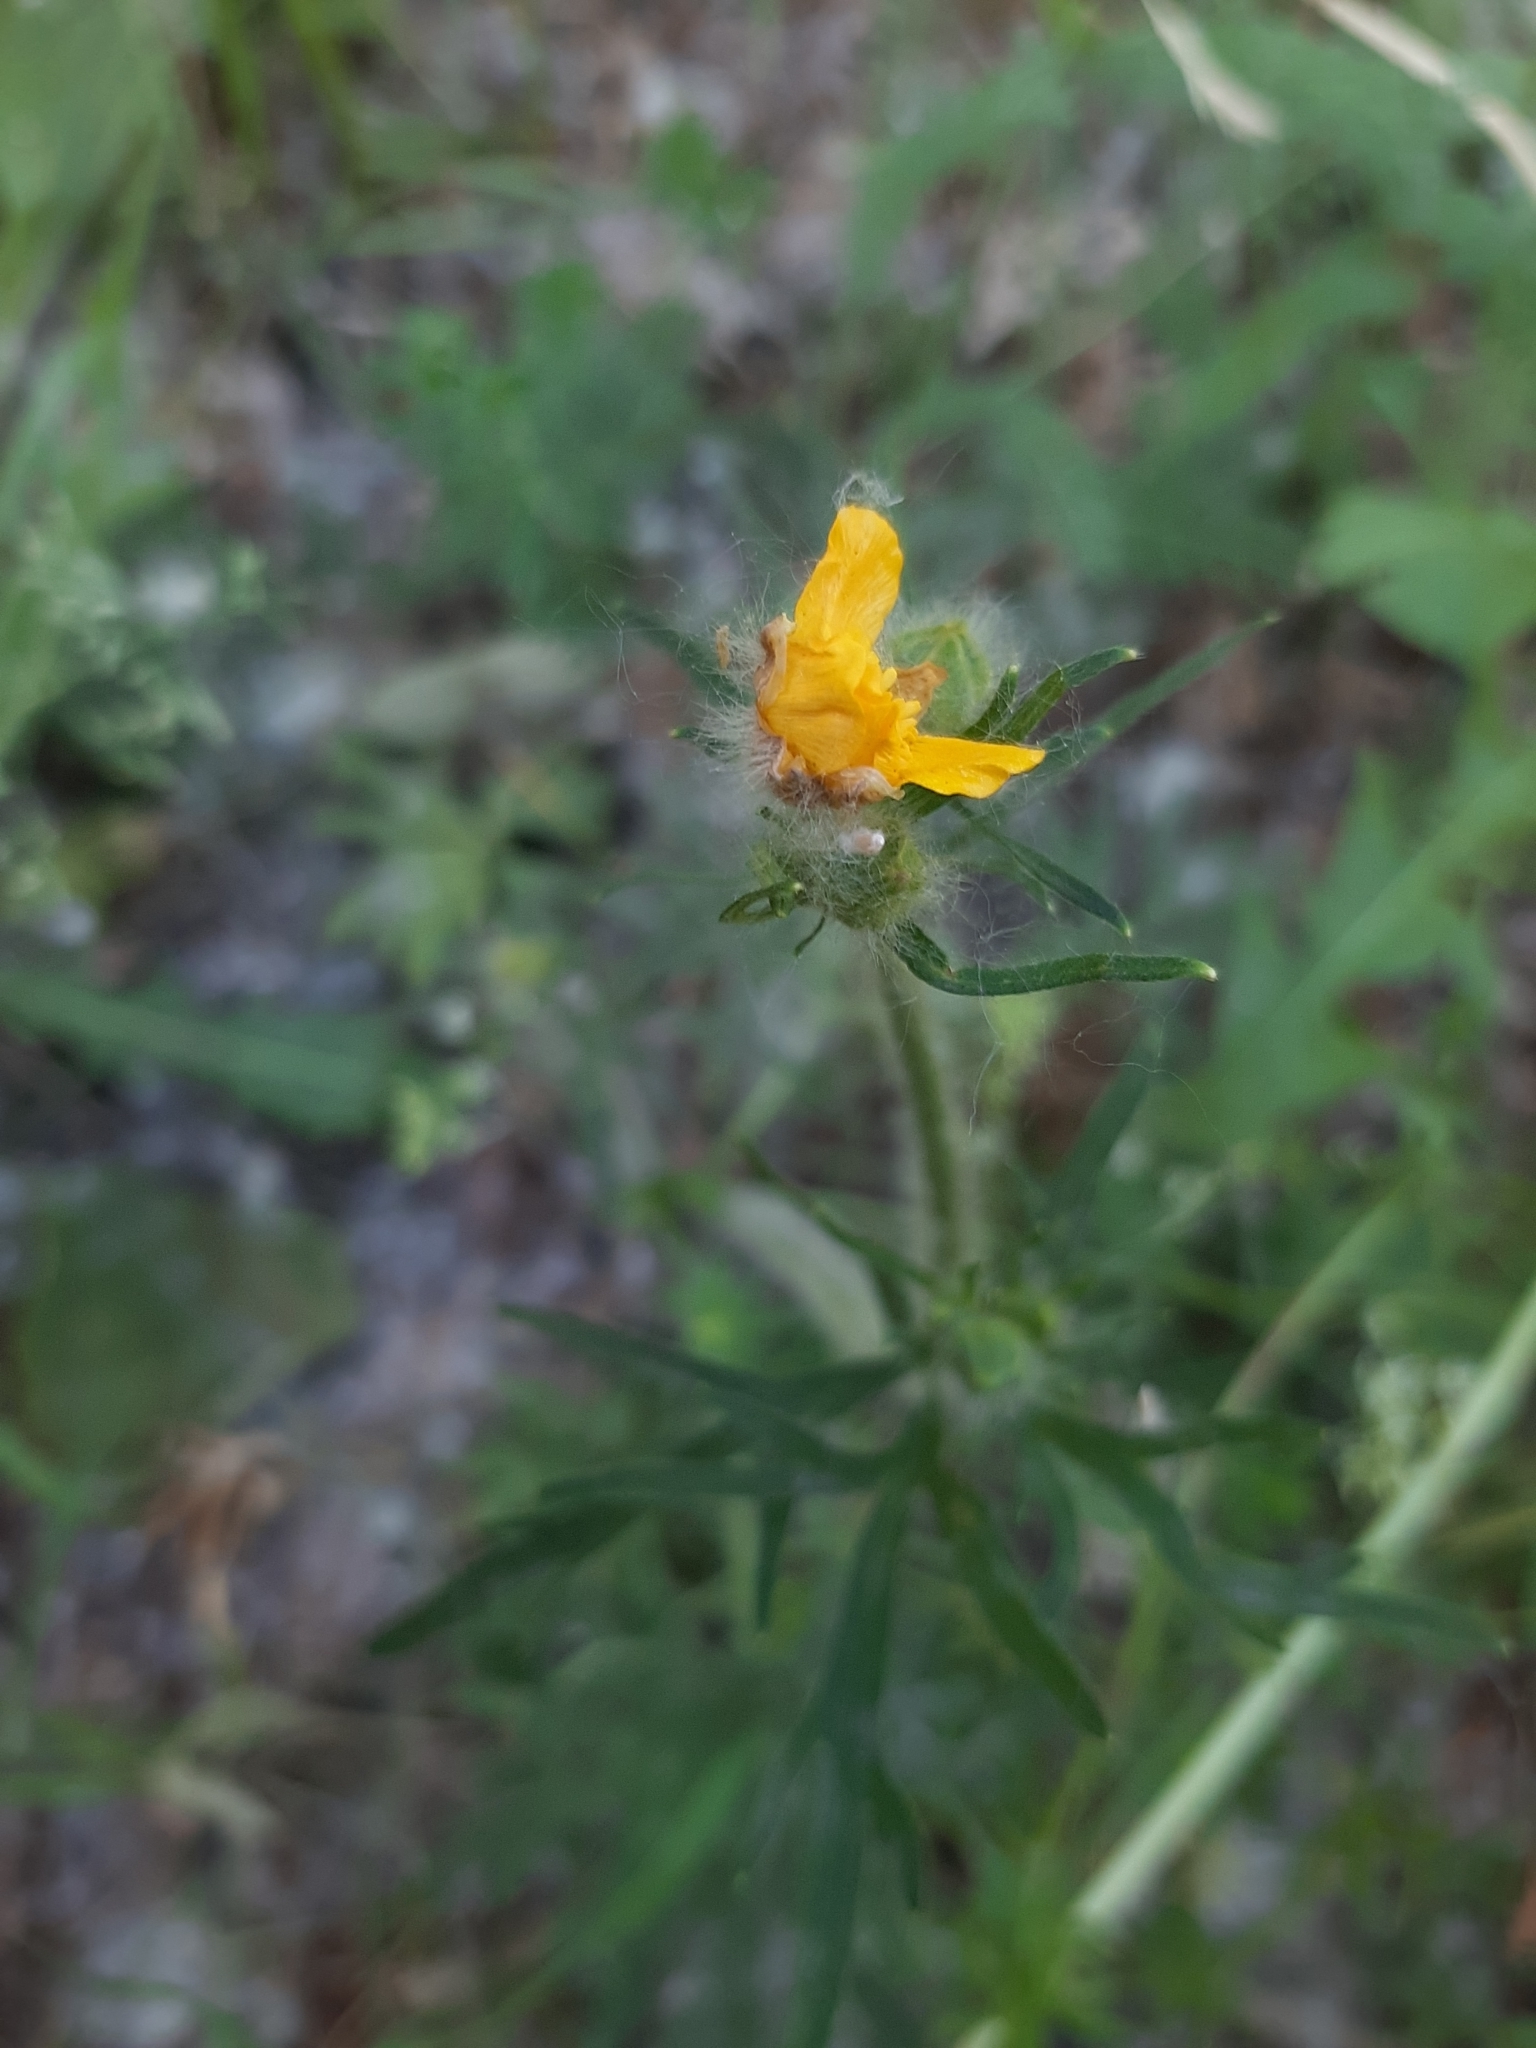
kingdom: Plantae
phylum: Tracheophyta
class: Magnoliopsida
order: Ranunculales
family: Ranunculaceae
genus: Ranunculus
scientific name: Ranunculus polyanthemos
